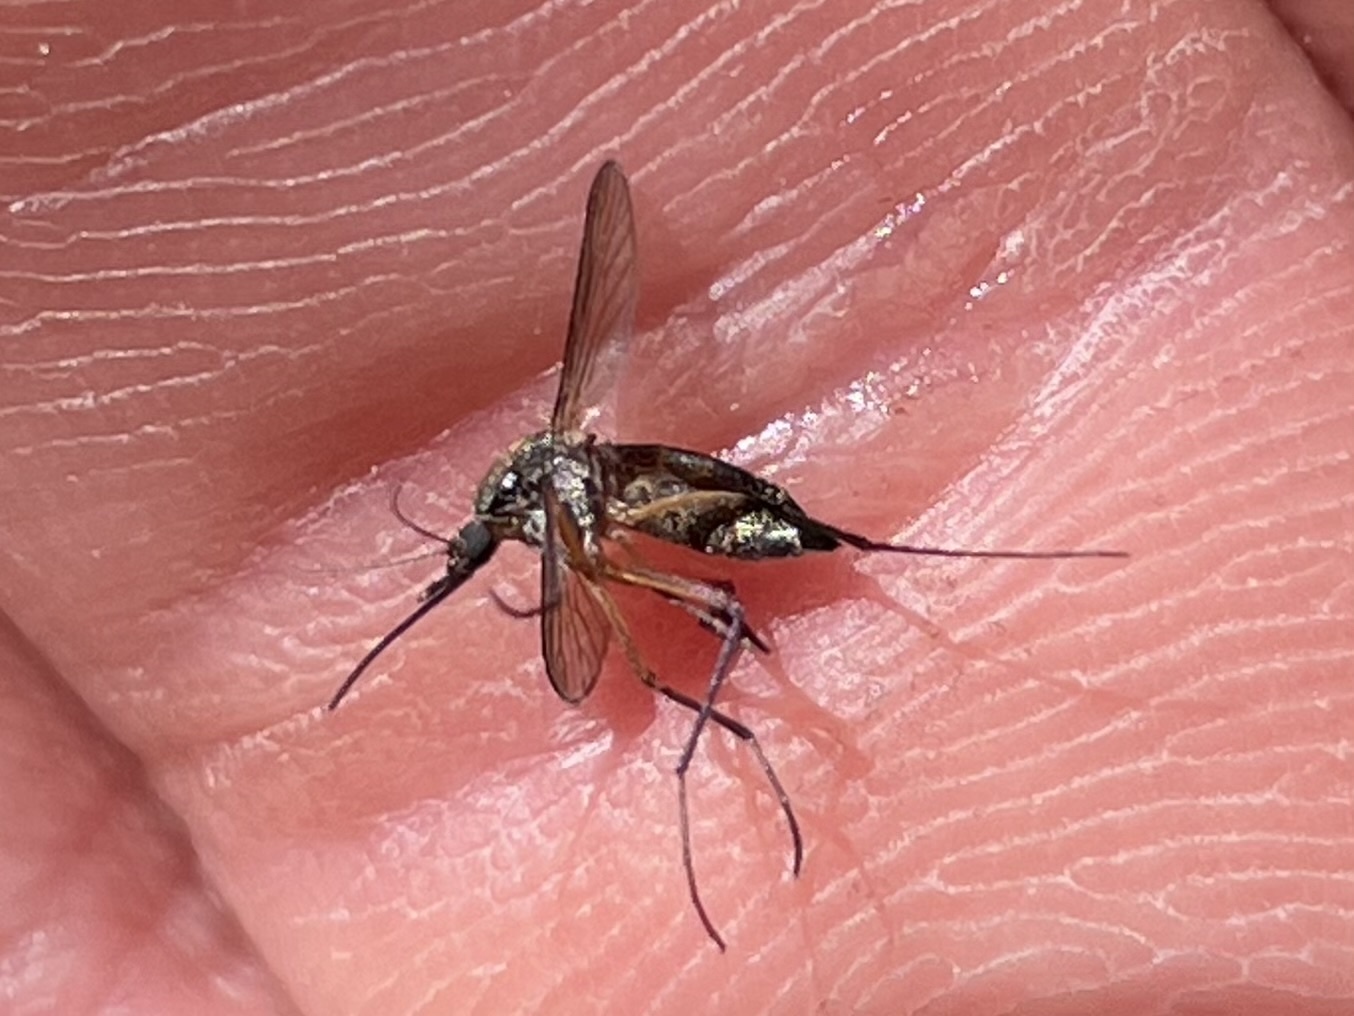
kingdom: Animalia
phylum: Arthropoda
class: Insecta
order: Diptera
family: Culicidae
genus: Psorophora
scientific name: Psorophora cyanescens
